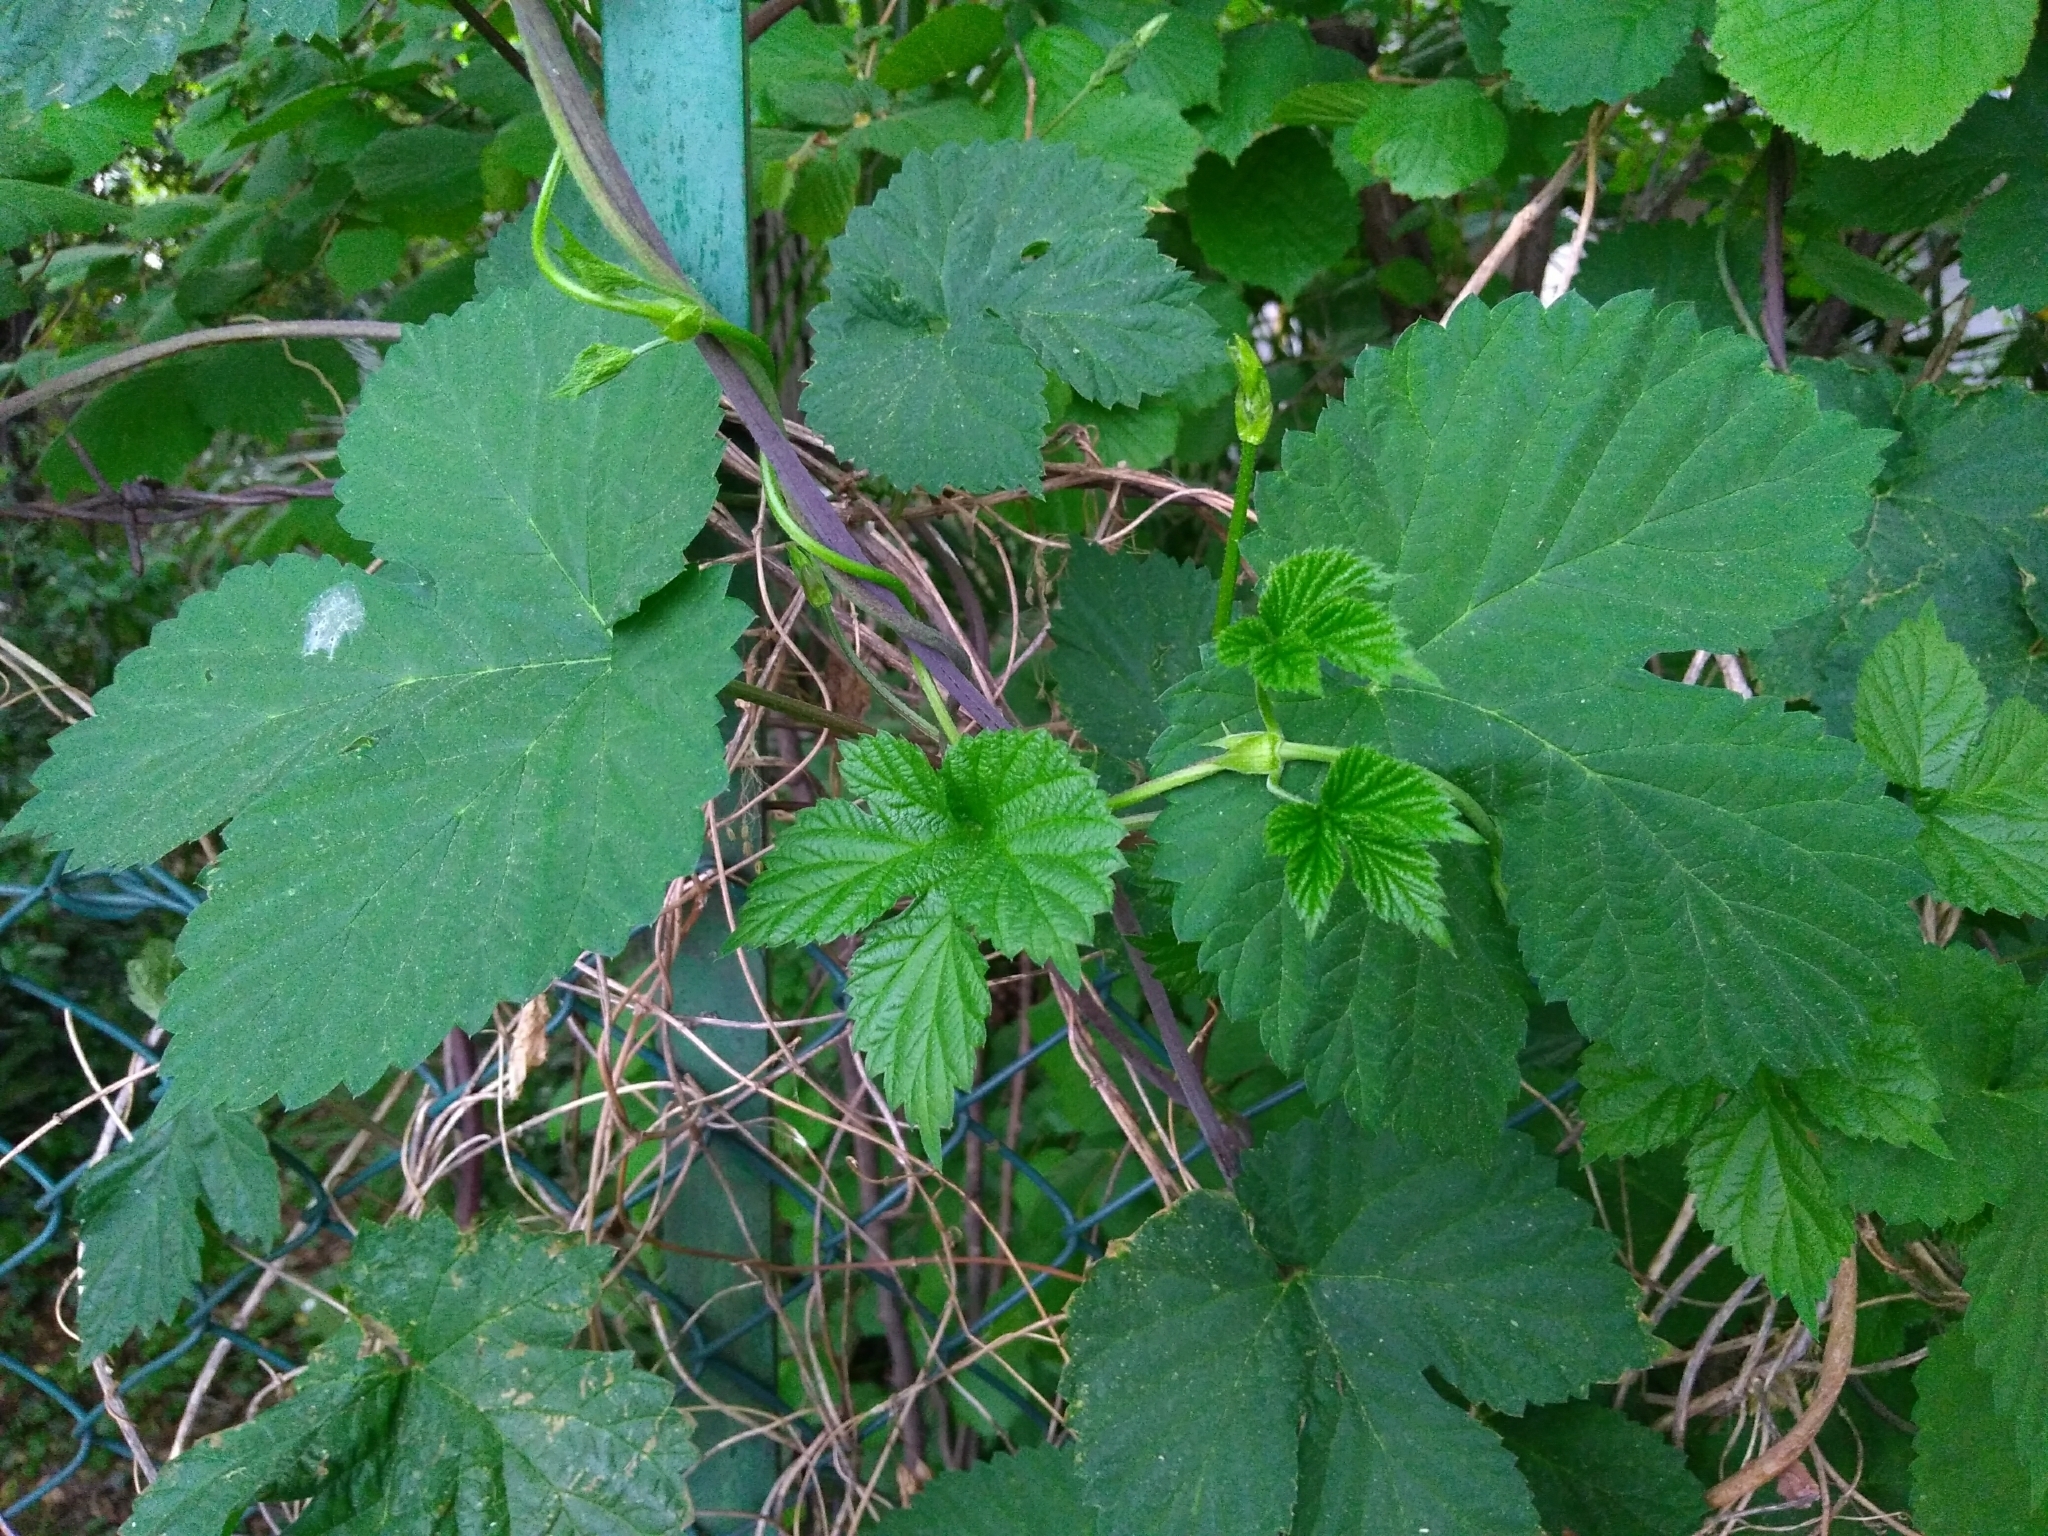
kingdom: Plantae
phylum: Tracheophyta
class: Magnoliopsida
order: Rosales
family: Cannabaceae
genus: Humulus
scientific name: Humulus lupulus
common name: Hop
